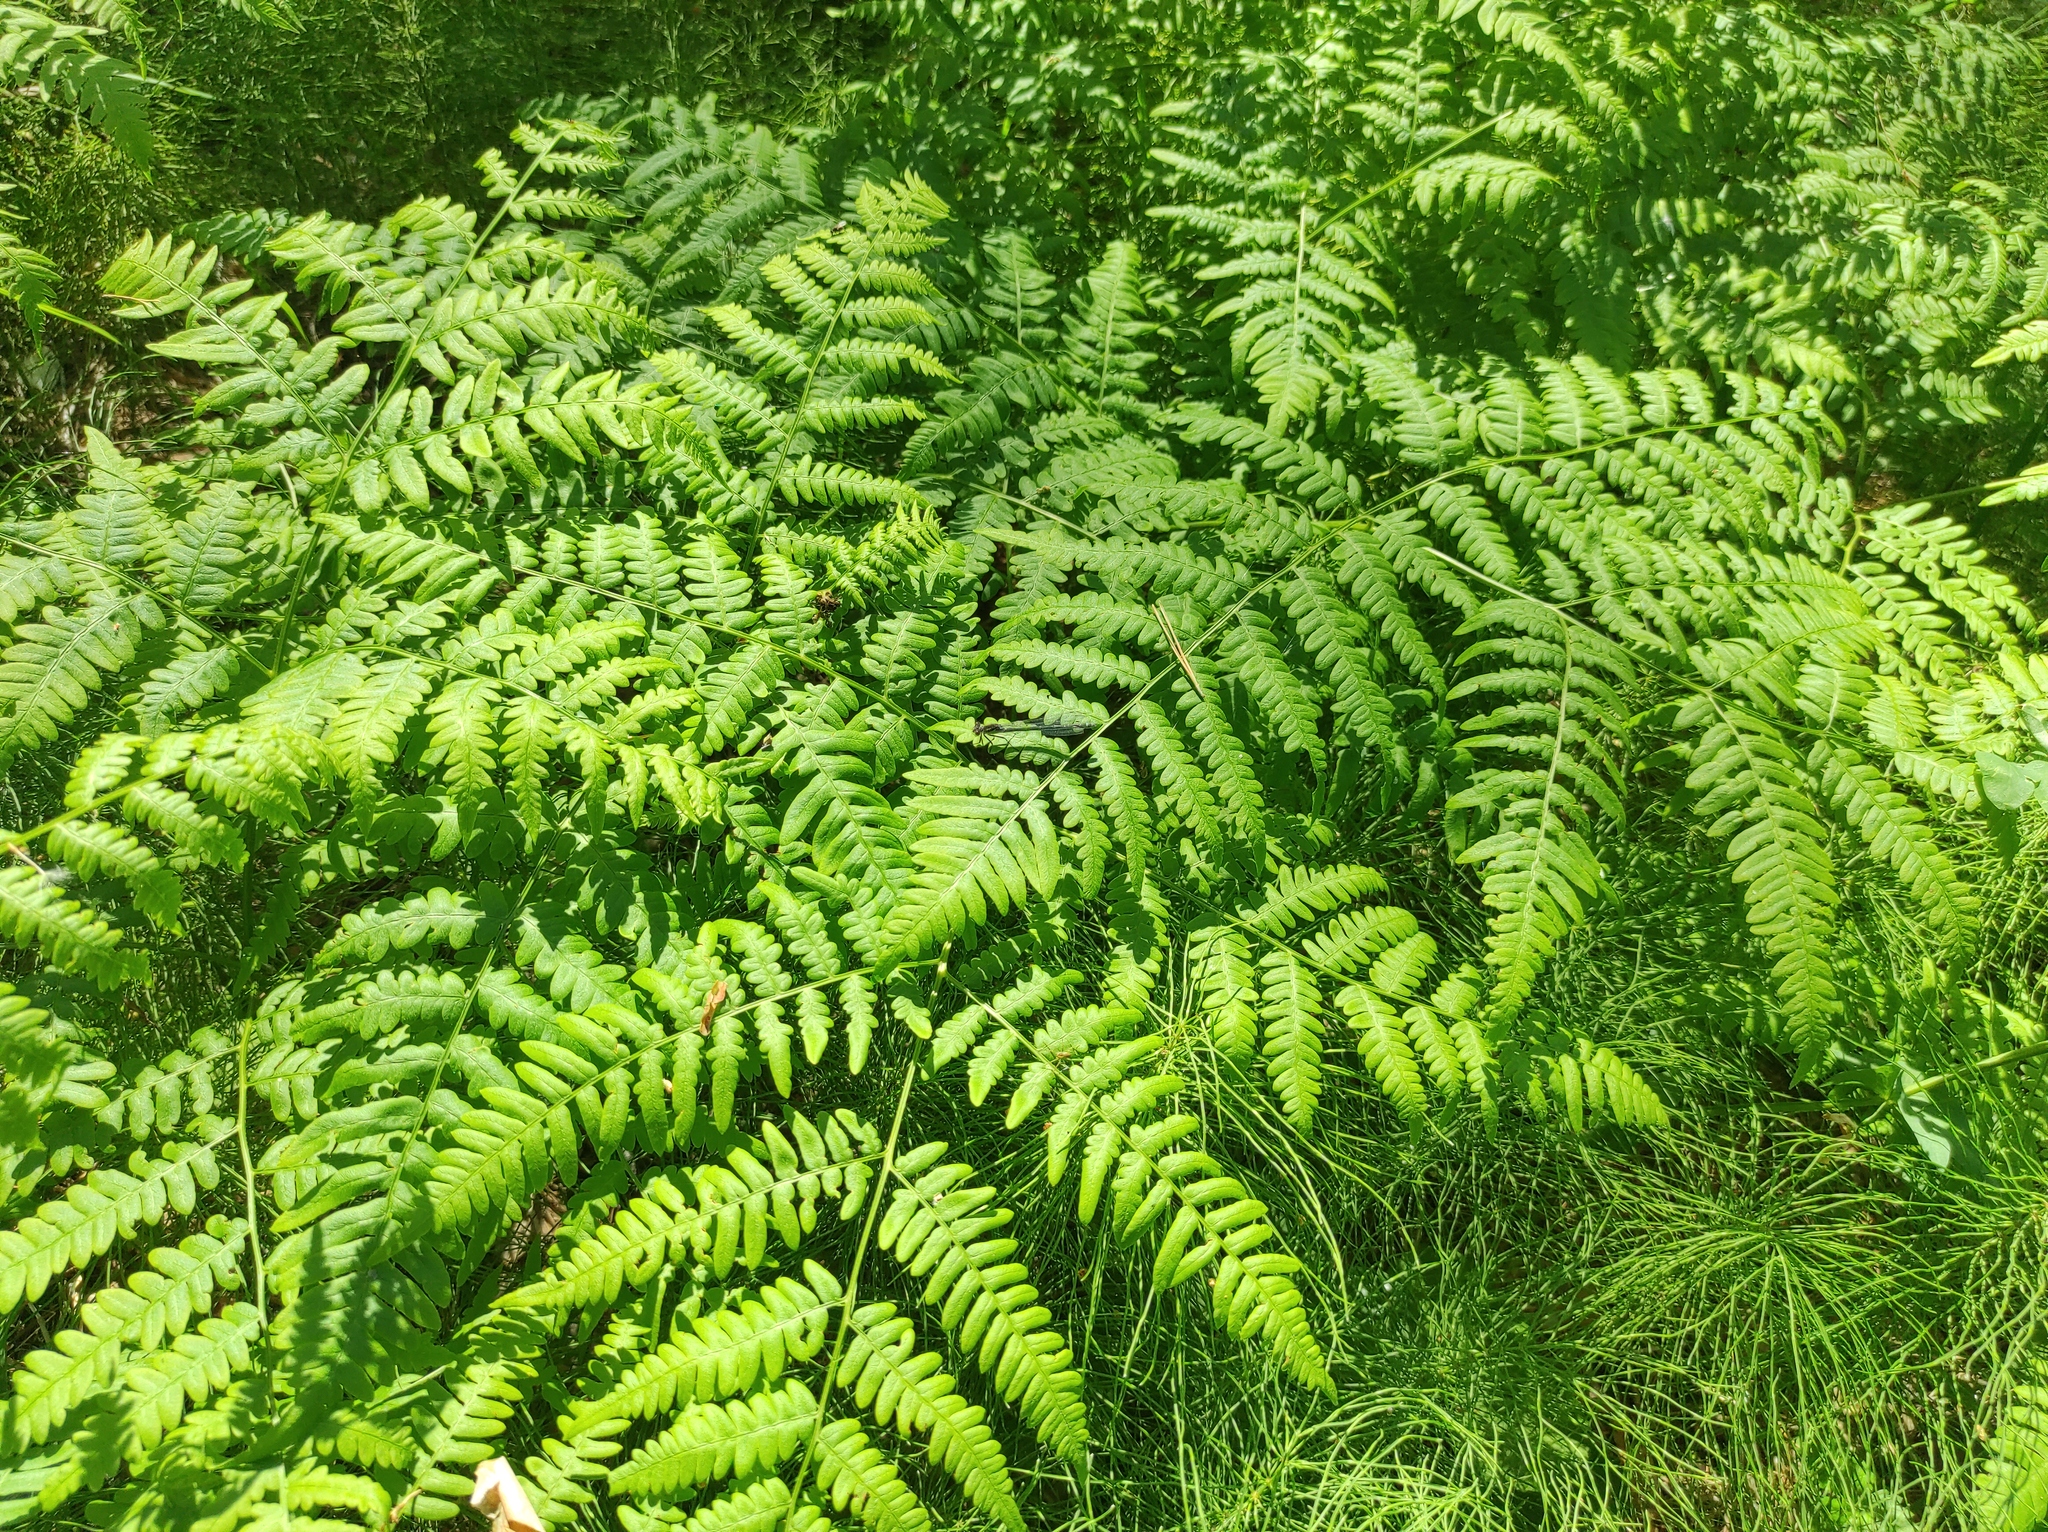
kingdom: Plantae
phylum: Tracheophyta
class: Polypodiopsida
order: Polypodiales
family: Dennstaedtiaceae
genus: Pteridium
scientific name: Pteridium aquilinum
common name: Bracken
